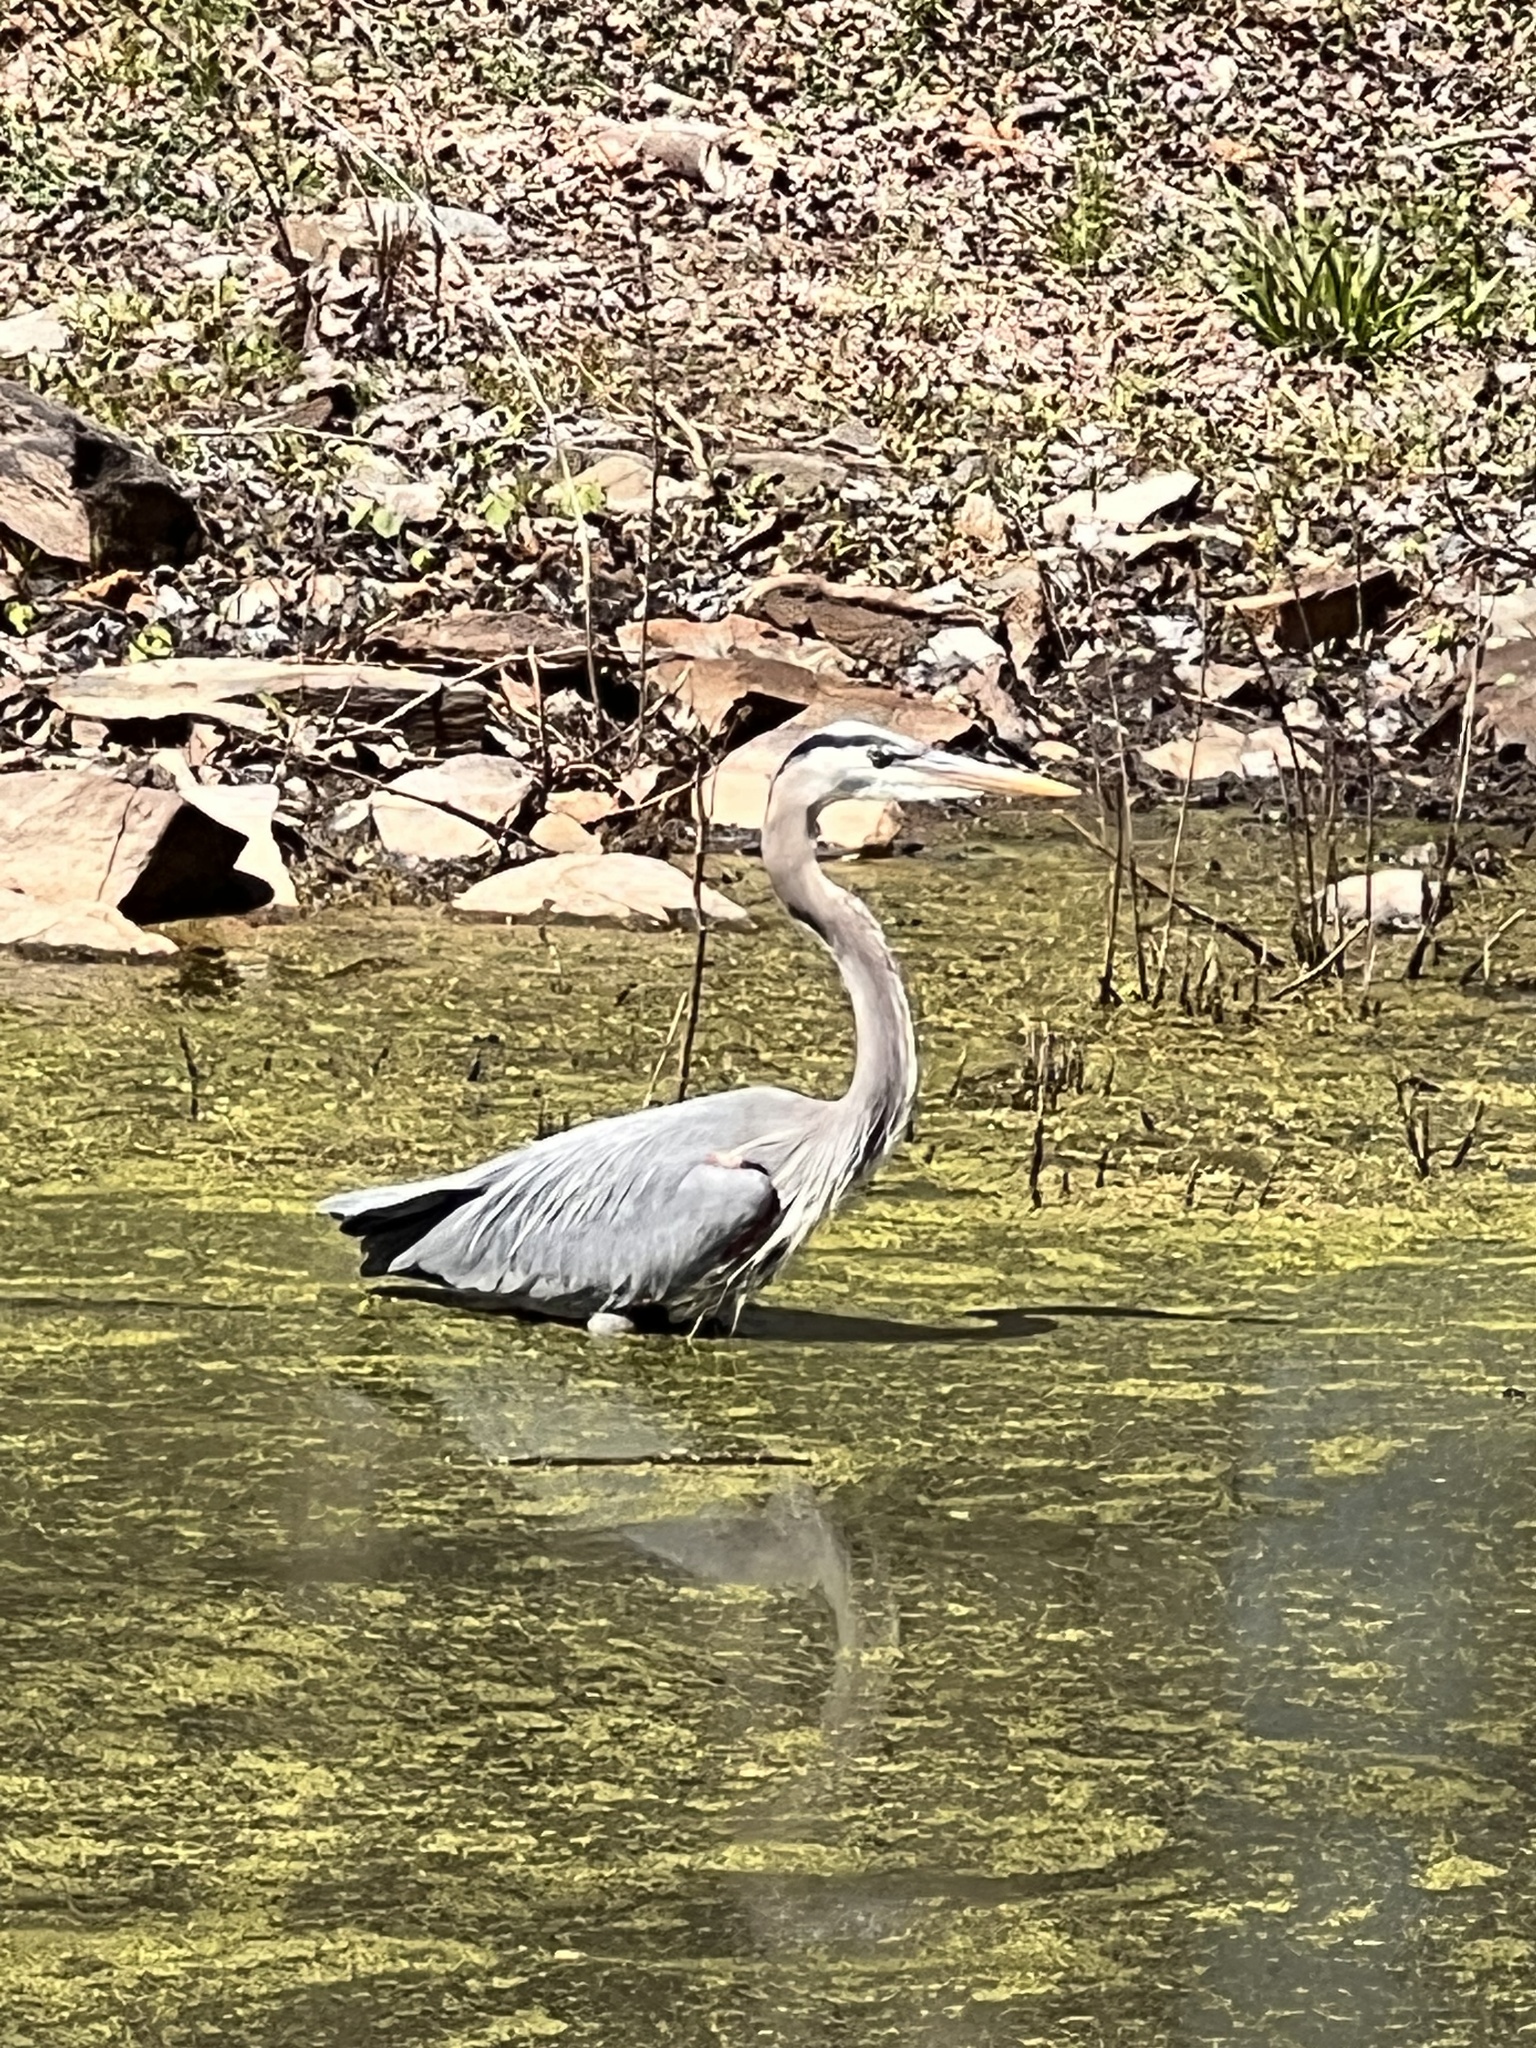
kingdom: Animalia
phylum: Chordata
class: Aves
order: Pelecaniformes
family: Ardeidae
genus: Ardea
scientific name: Ardea herodias
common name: Great blue heron
